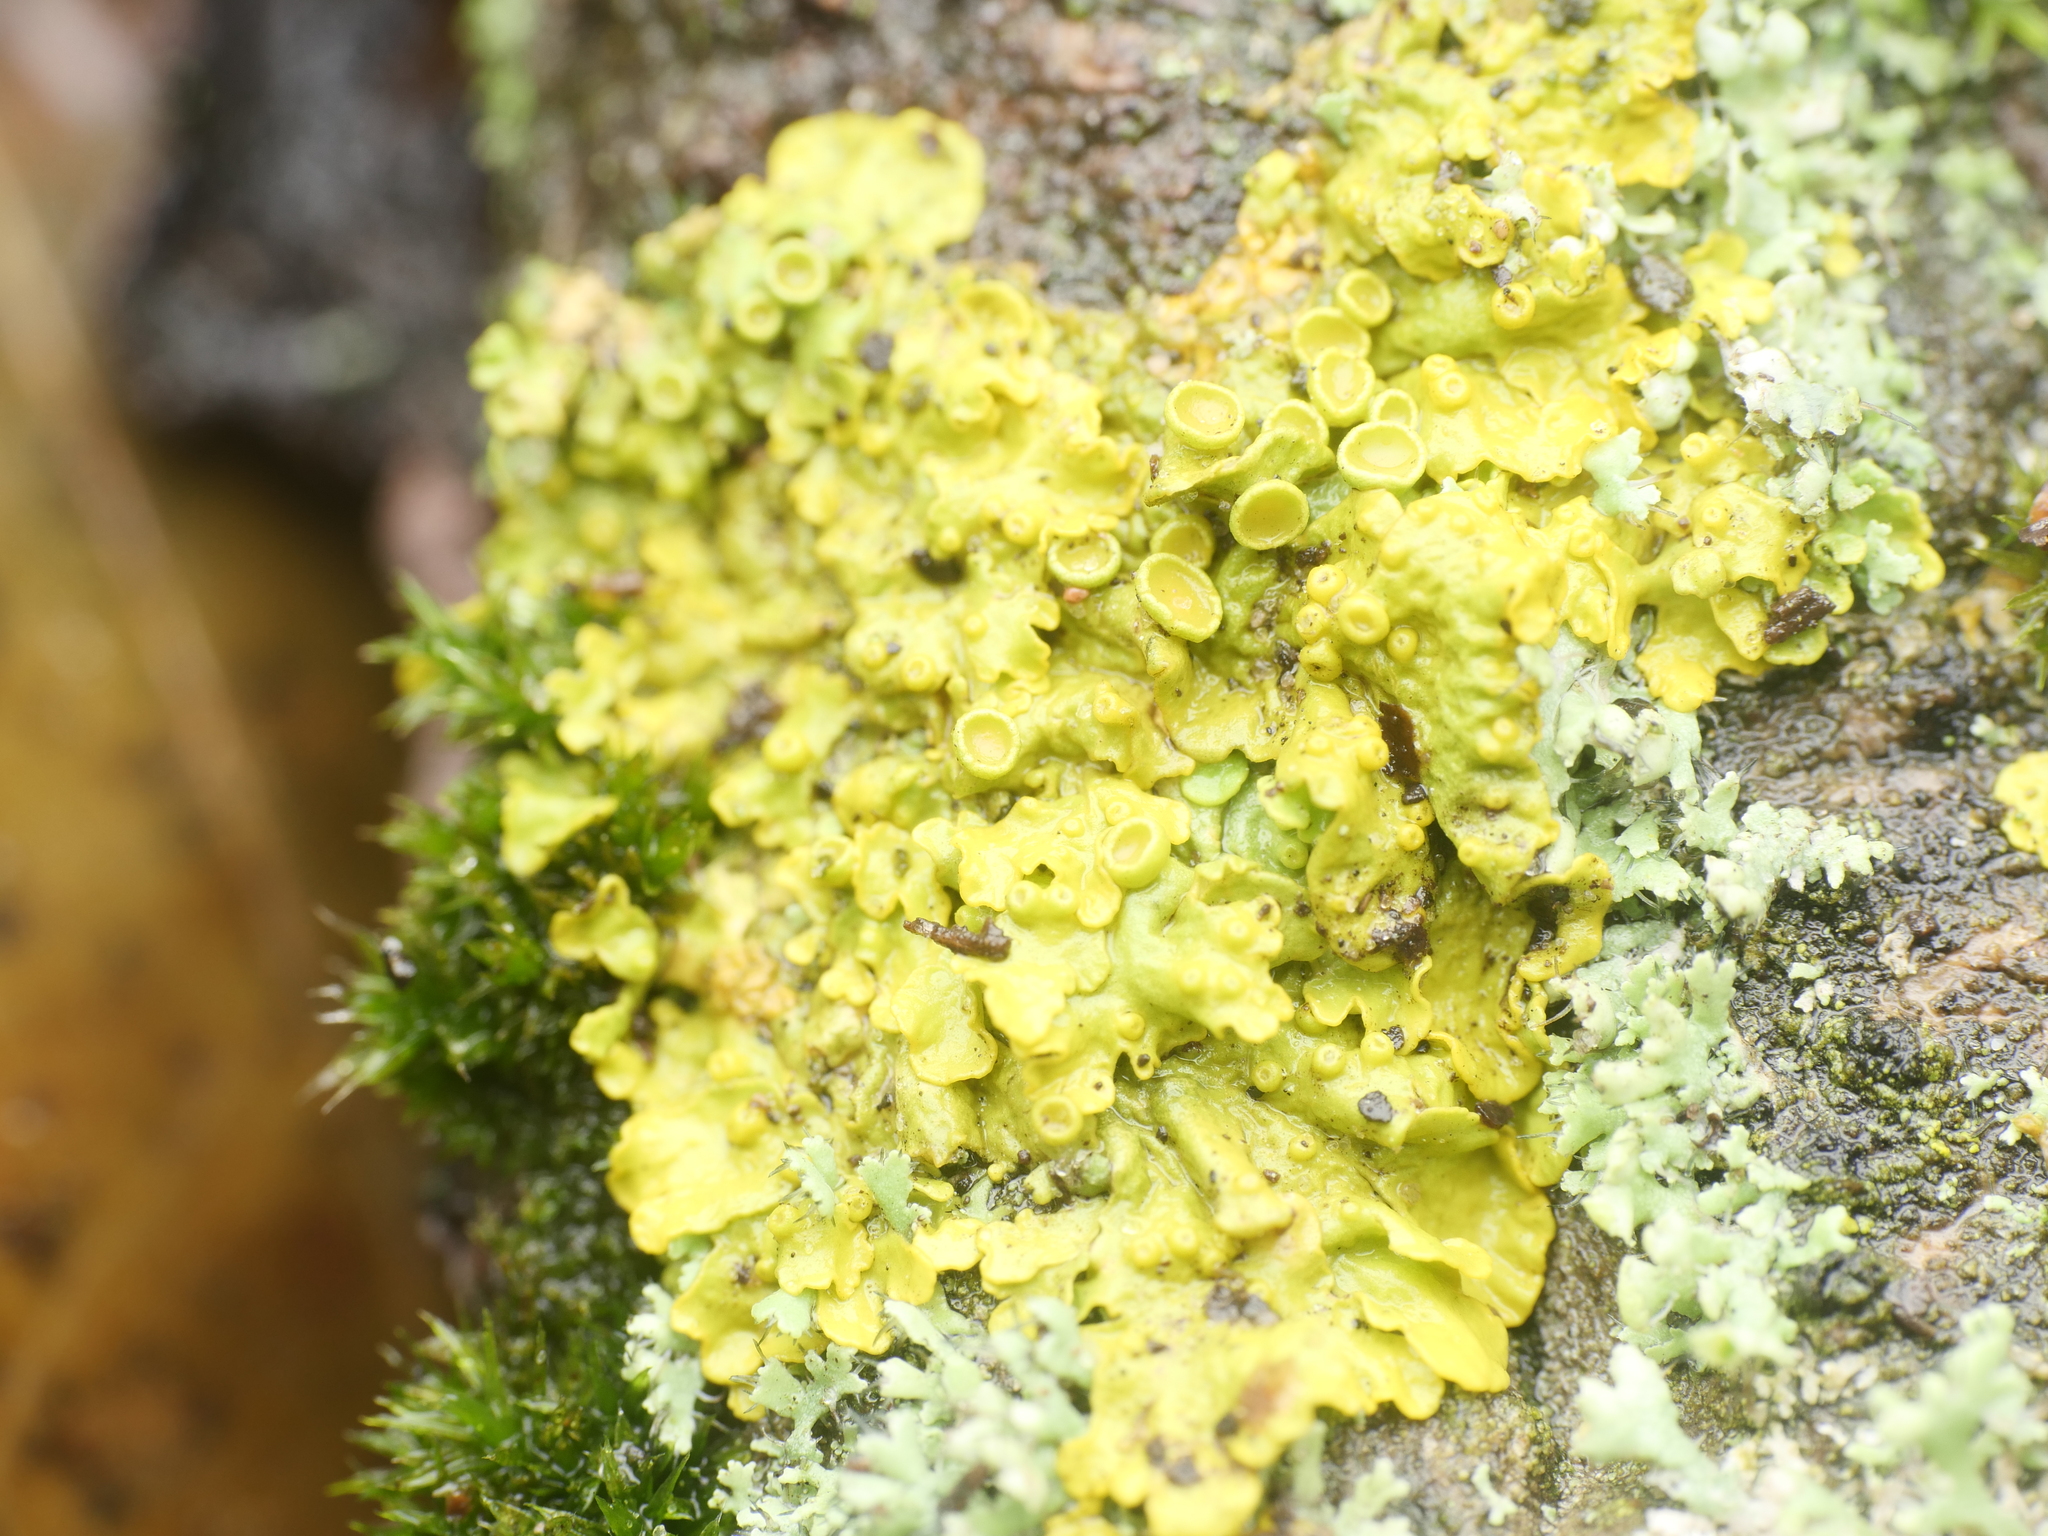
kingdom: Fungi
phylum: Ascomycota
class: Lecanoromycetes
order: Teloschistales
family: Teloschistaceae
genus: Xanthoria
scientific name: Xanthoria parietina
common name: Common orange lichen
